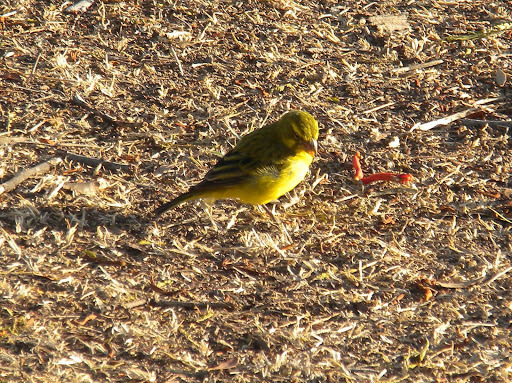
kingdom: Animalia
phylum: Chordata
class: Aves
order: Passeriformes
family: Fringillidae
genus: Crithagra
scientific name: Crithagra sulphurata
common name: Brimstone canary
